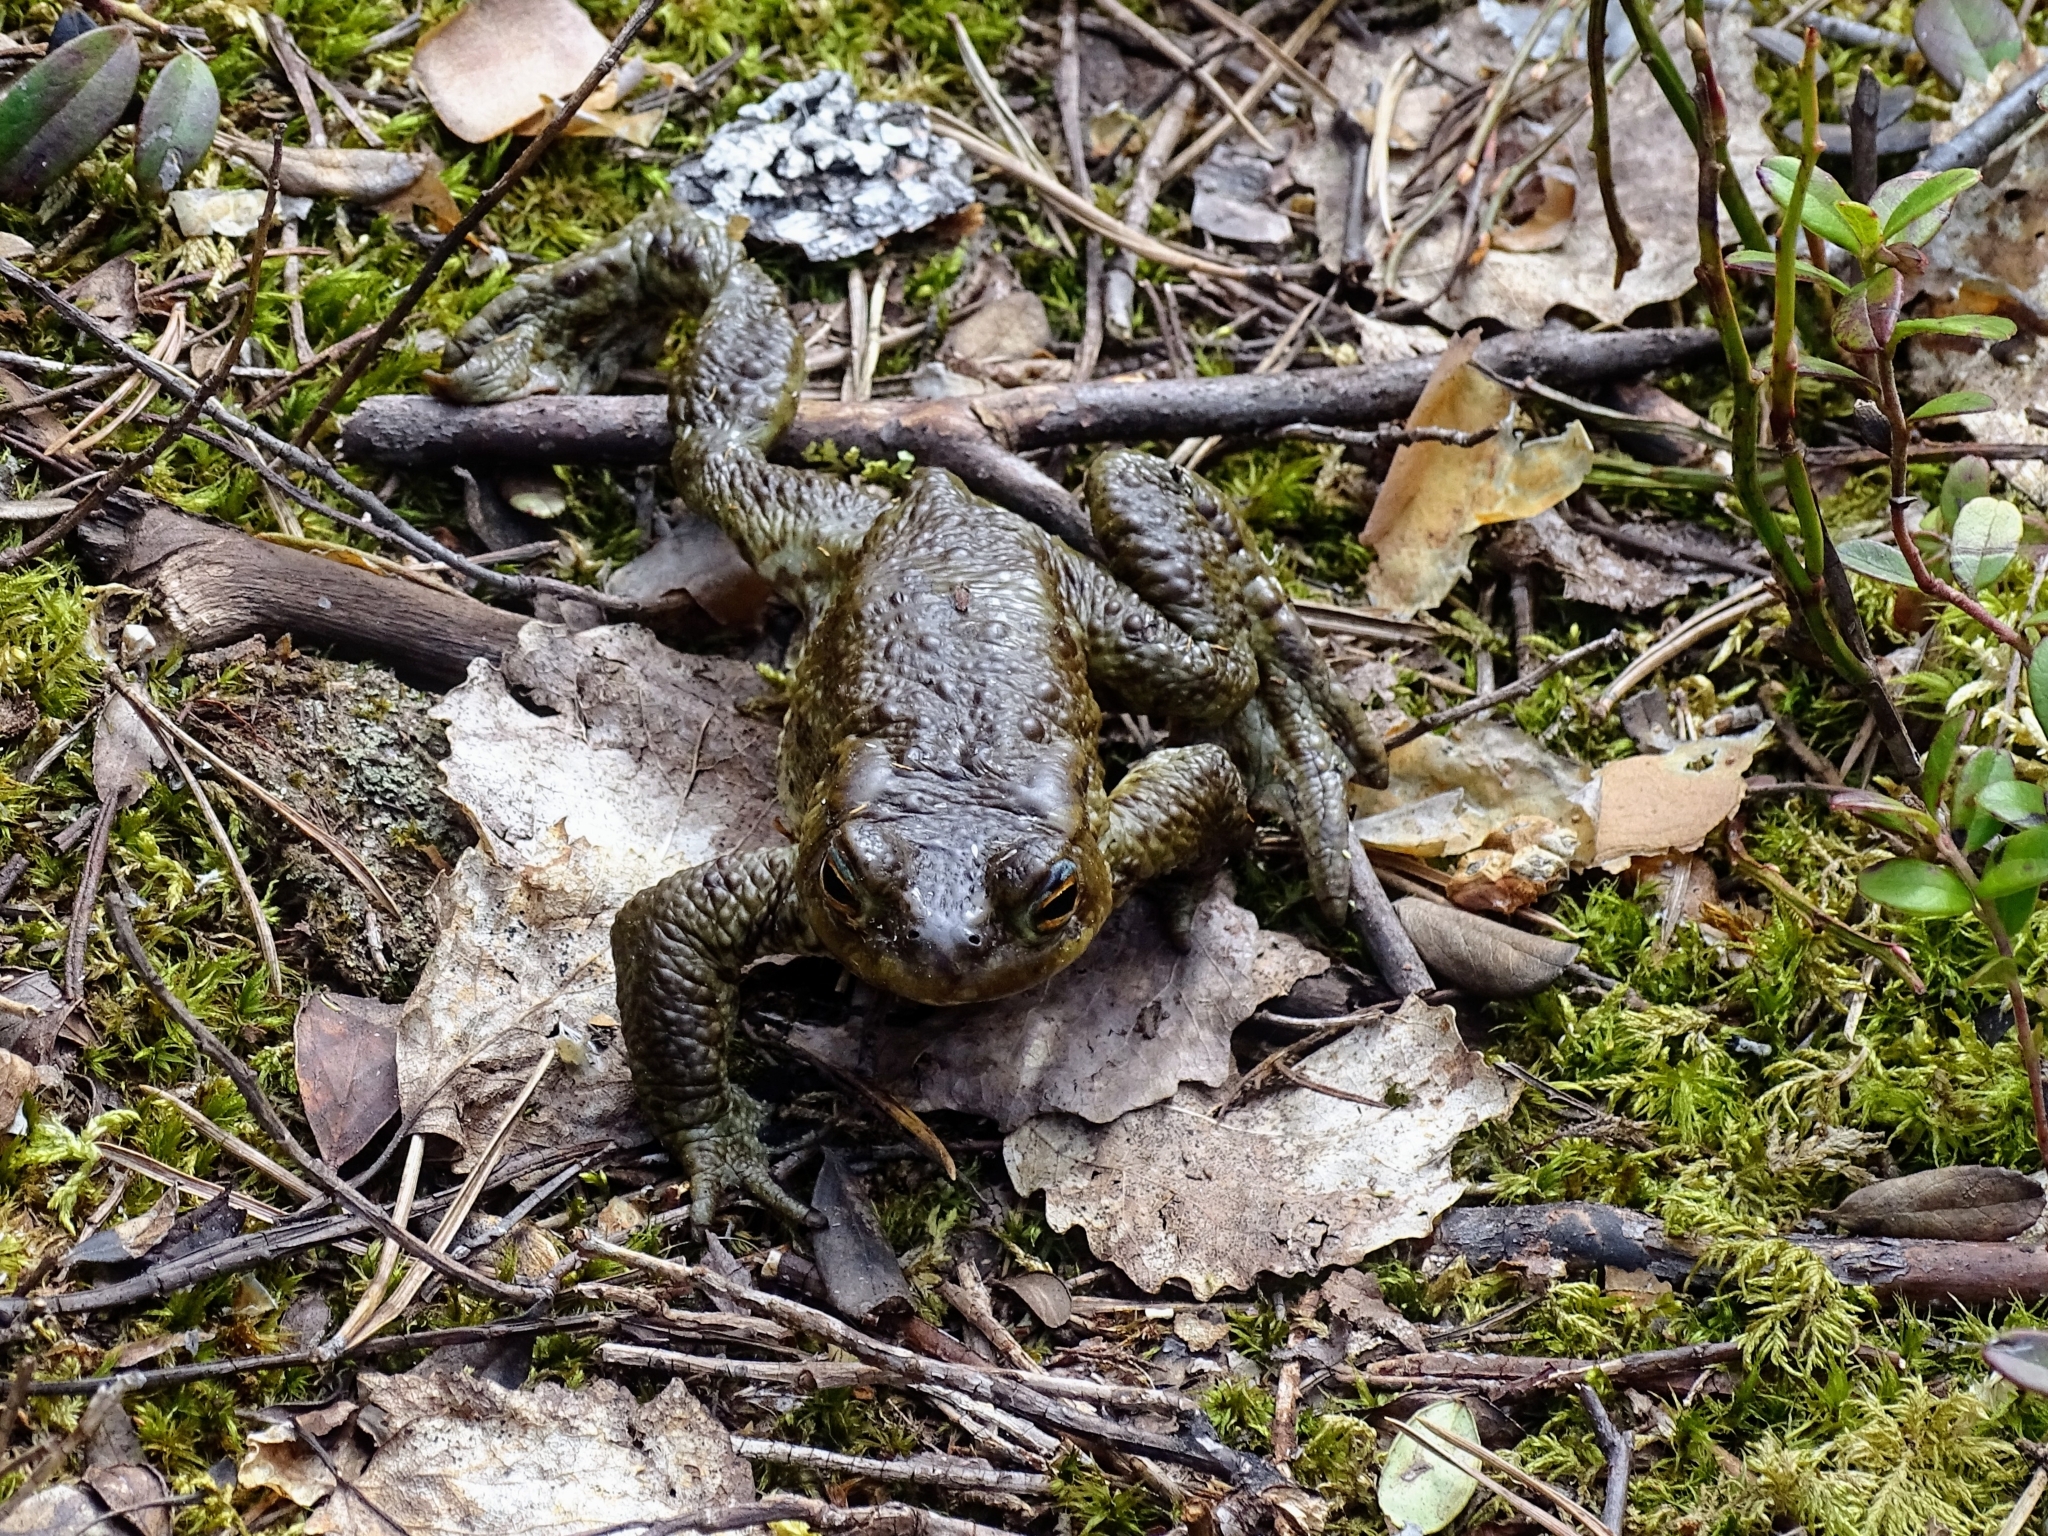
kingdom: Animalia
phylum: Chordata
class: Amphibia
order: Anura
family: Bufonidae
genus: Bufo
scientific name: Bufo bufo
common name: Common toad
